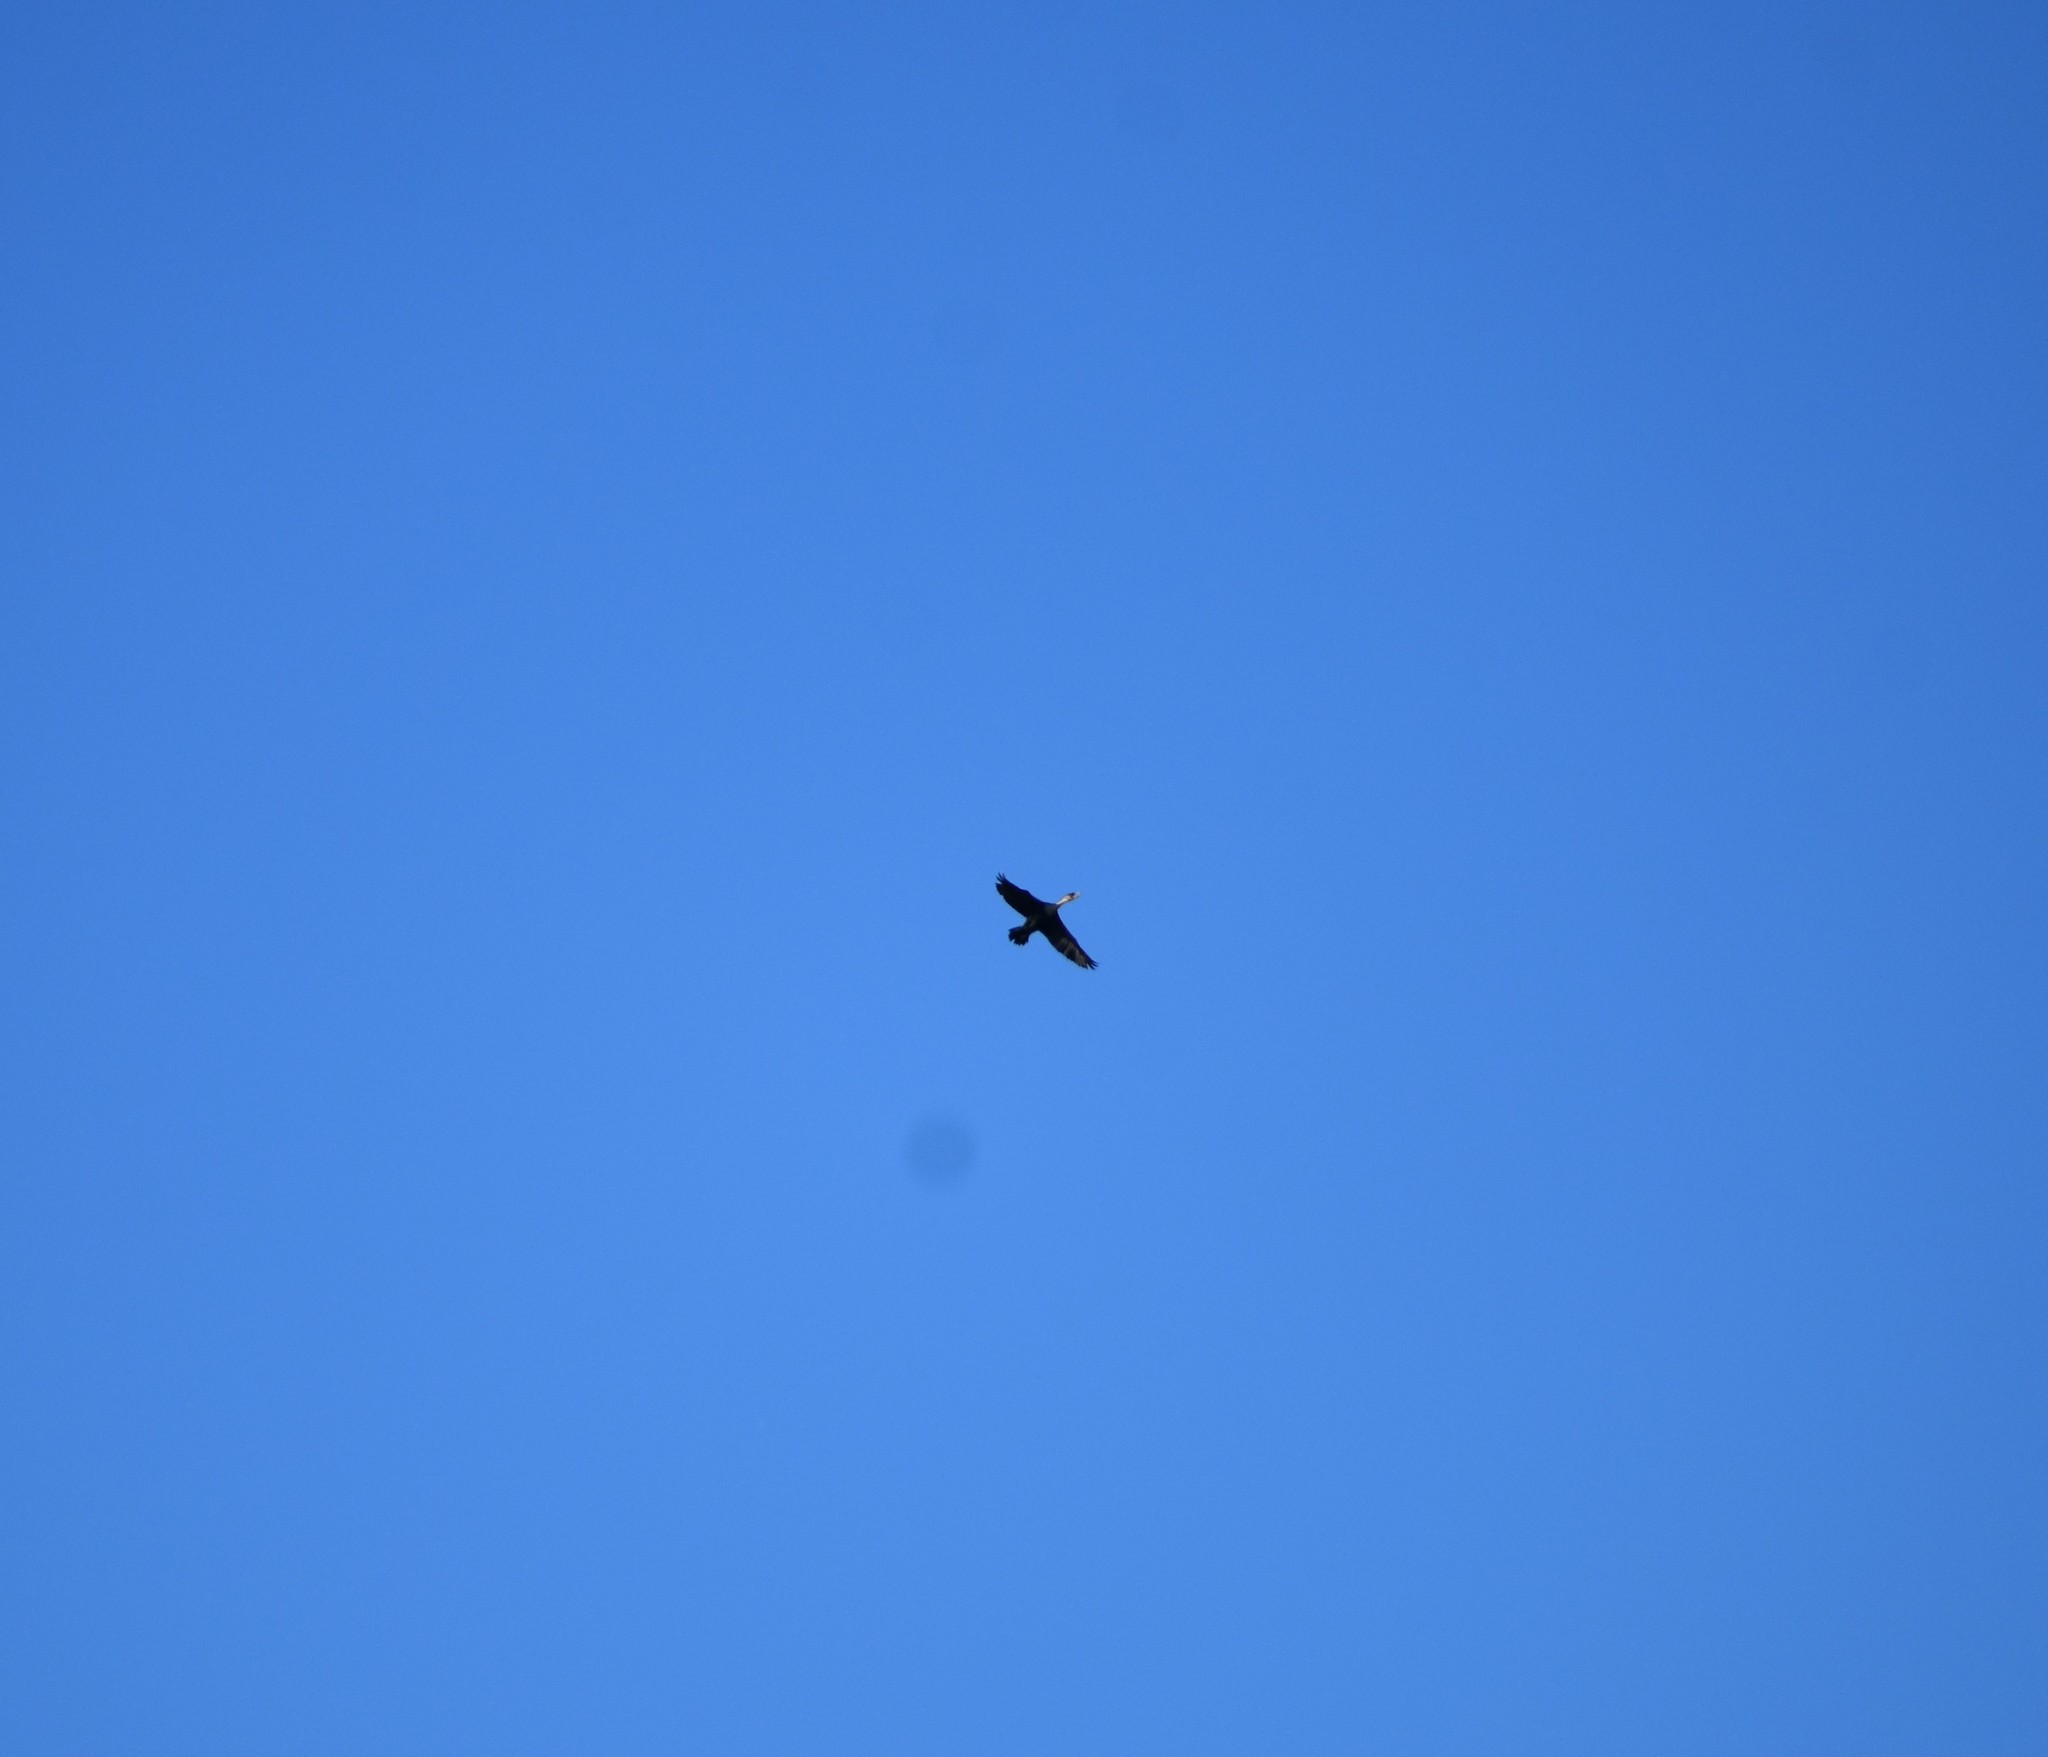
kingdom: Animalia
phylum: Chordata
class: Aves
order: Suliformes
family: Phalacrocoracidae
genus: Phalacrocorax
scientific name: Phalacrocorax carbo
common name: Great cormorant
